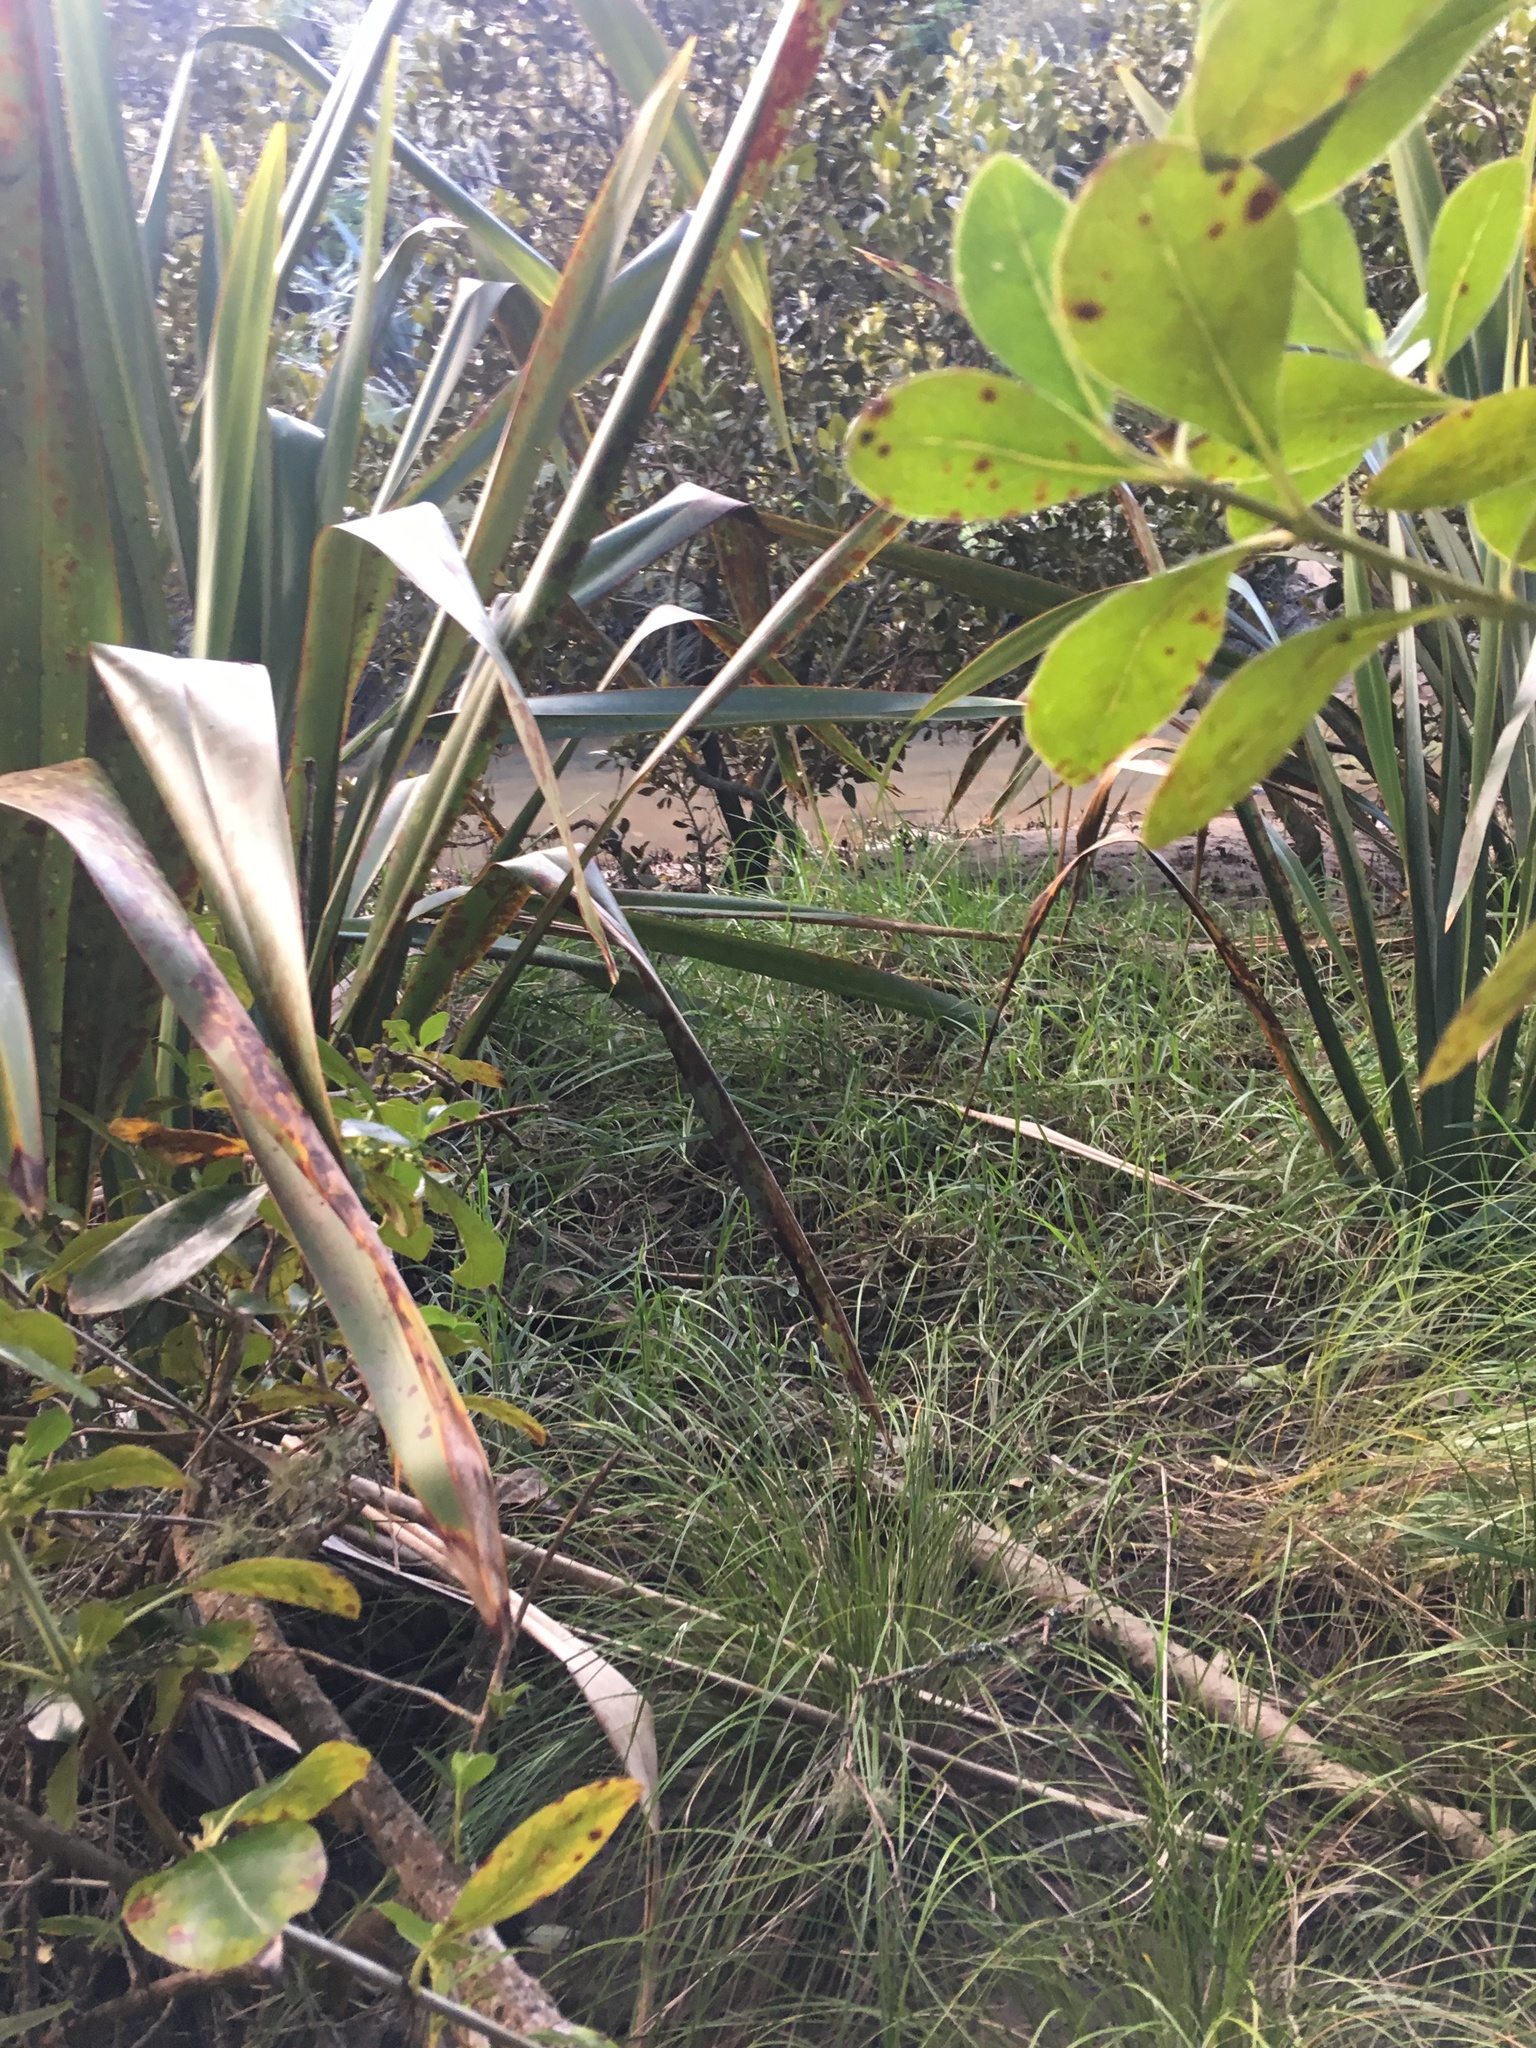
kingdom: Plantae
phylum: Tracheophyta
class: Magnoliopsida
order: Lamiales
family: Acanthaceae
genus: Avicennia
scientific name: Avicennia marina
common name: Gray mangrove
